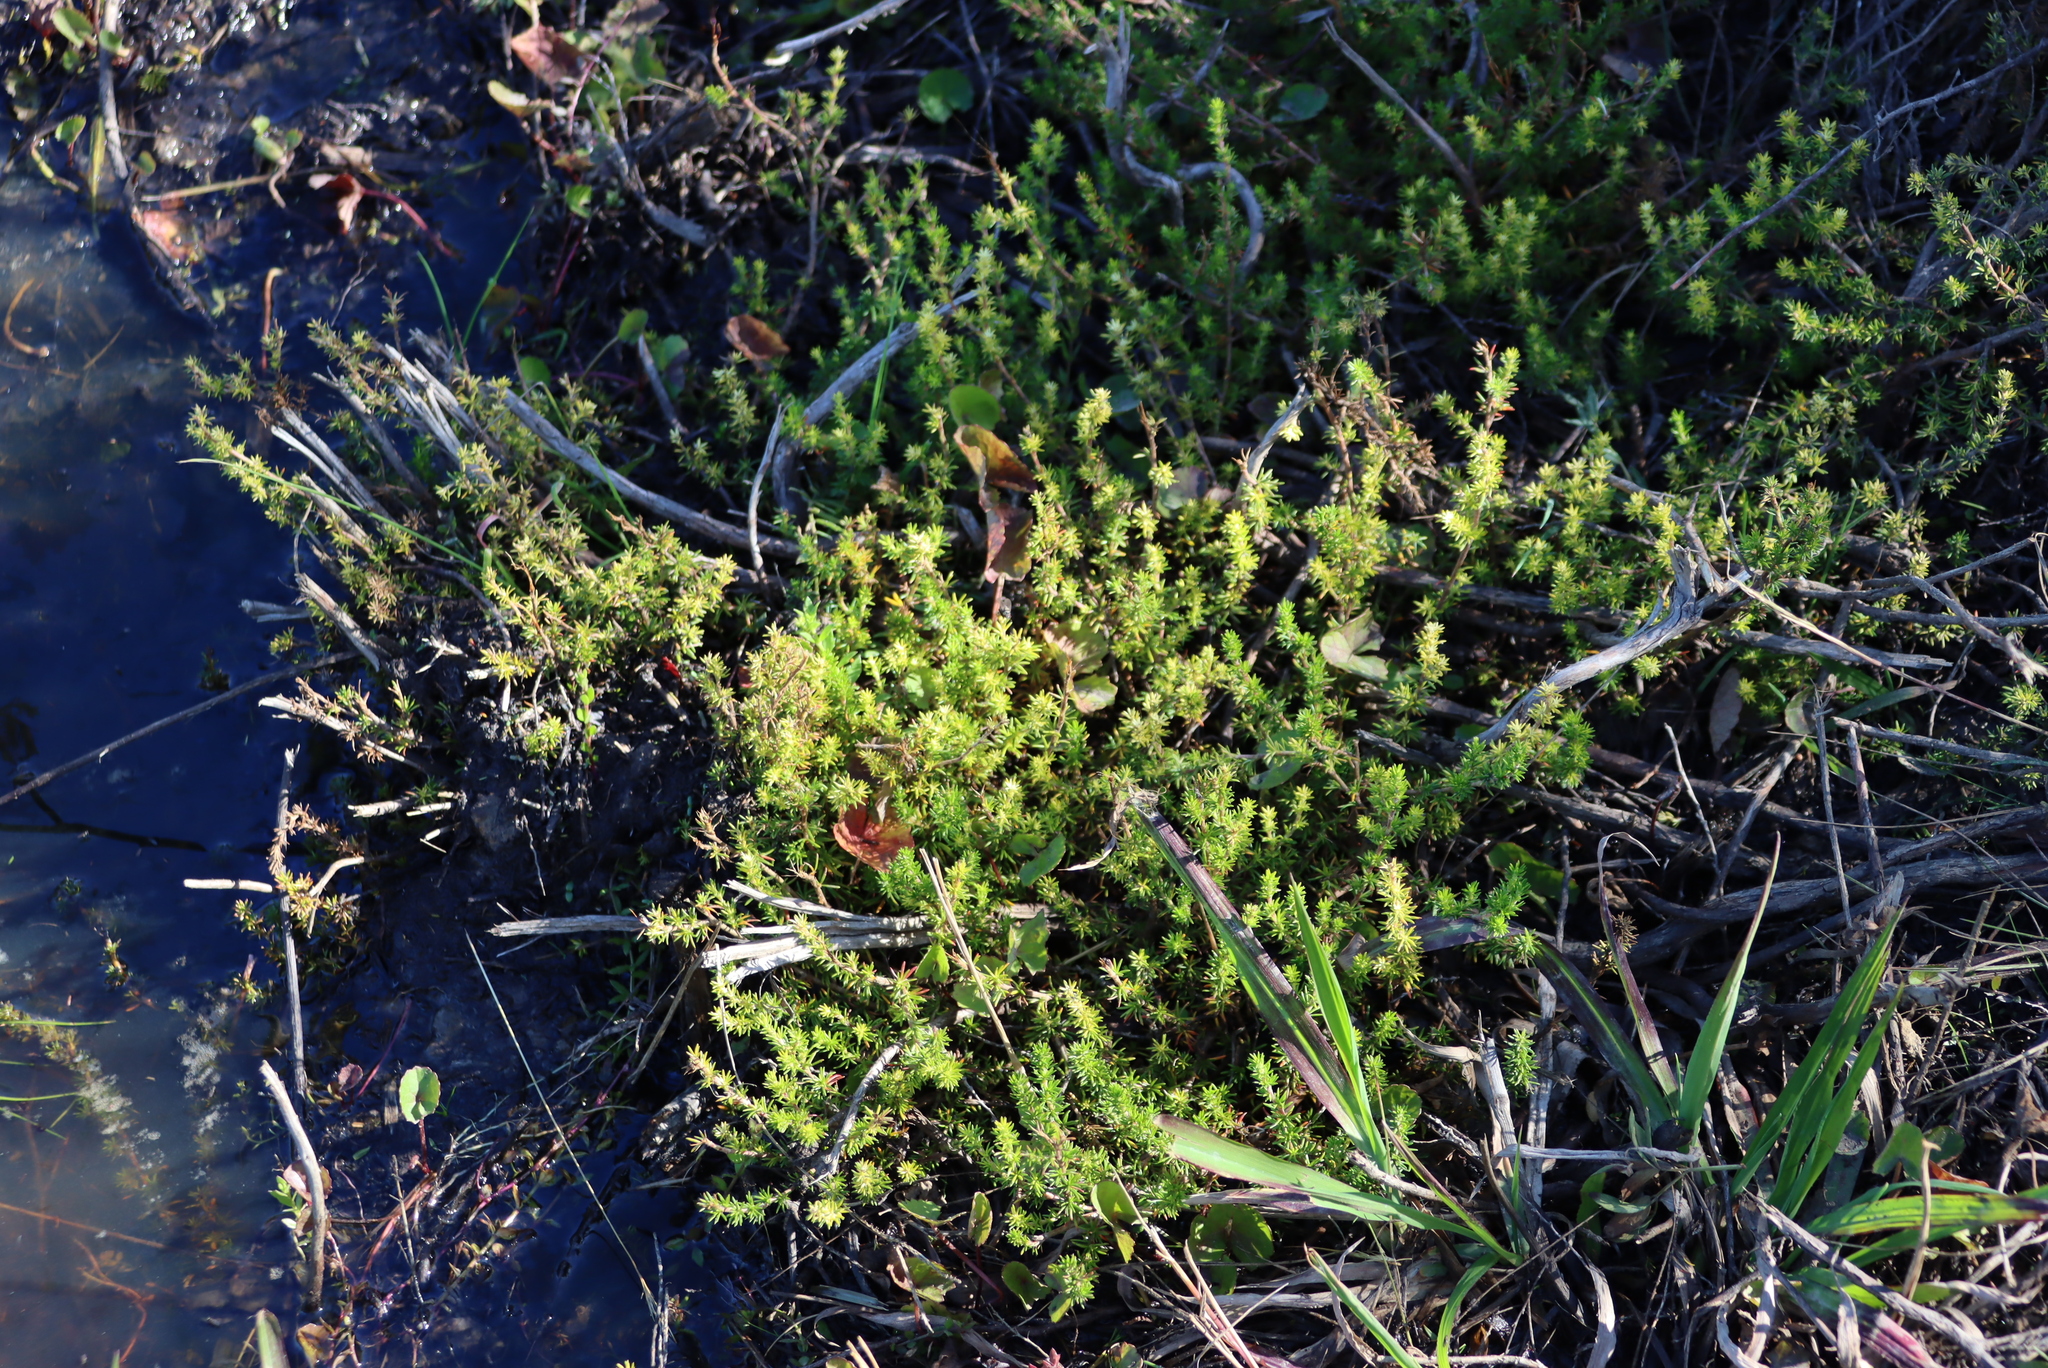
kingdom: Plantae
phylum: Tracheophyta
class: Magnoliopsida
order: Rosales
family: Rosaceae
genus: Cliffortia
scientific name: Cliffortia linearifolia
